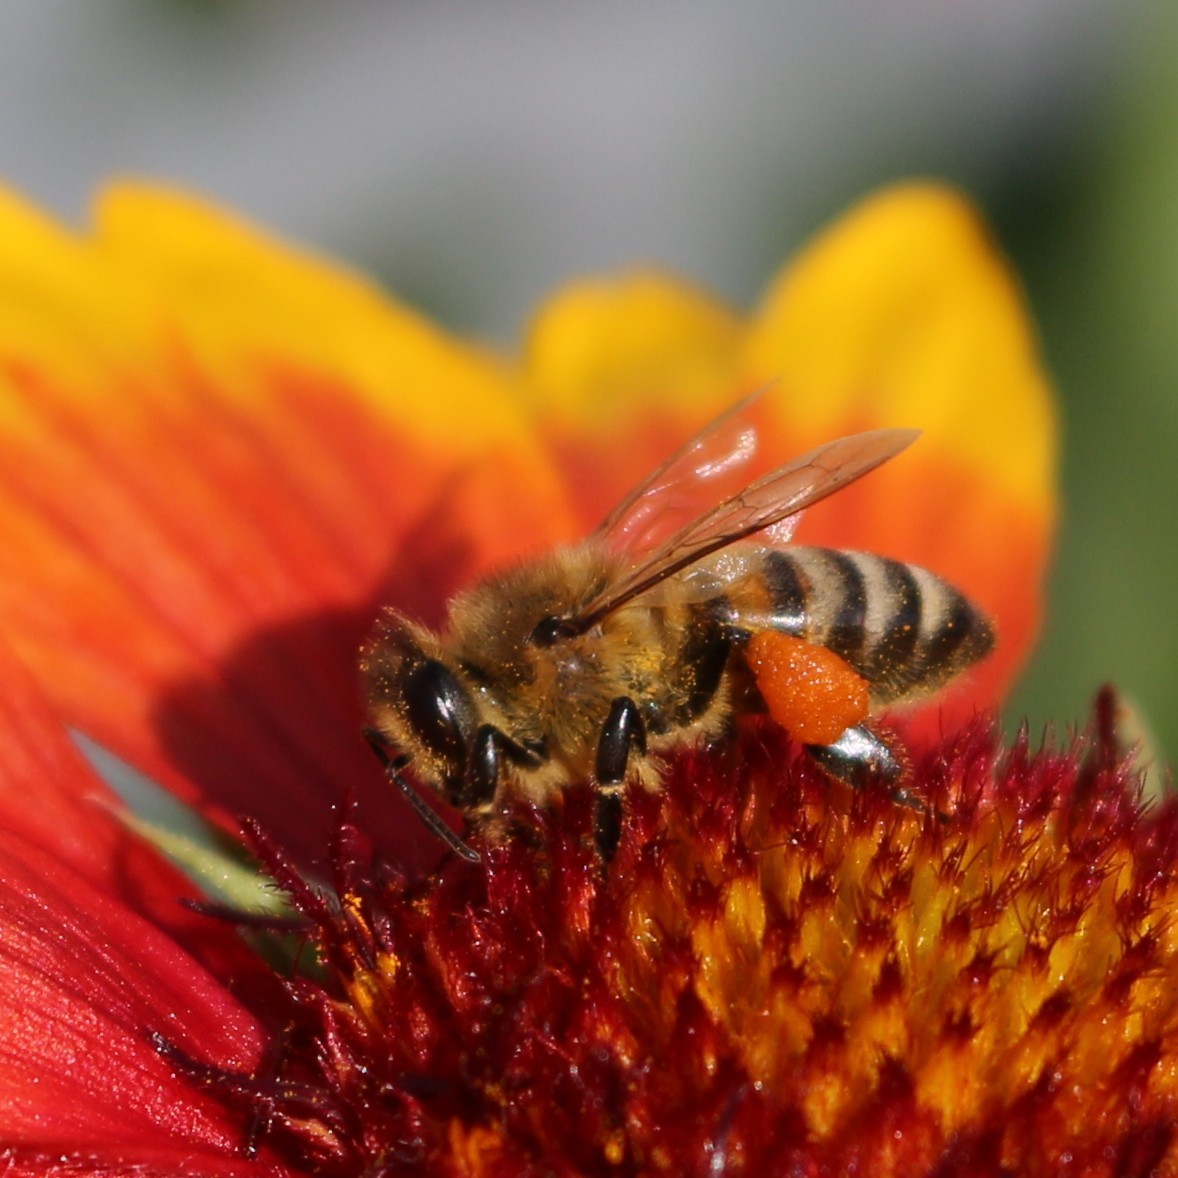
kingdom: Animalia
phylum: Arthropoda
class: Insecta
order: Hymenoptera
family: Apidae
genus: Apis
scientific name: Apis mellifera
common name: Honey bee
